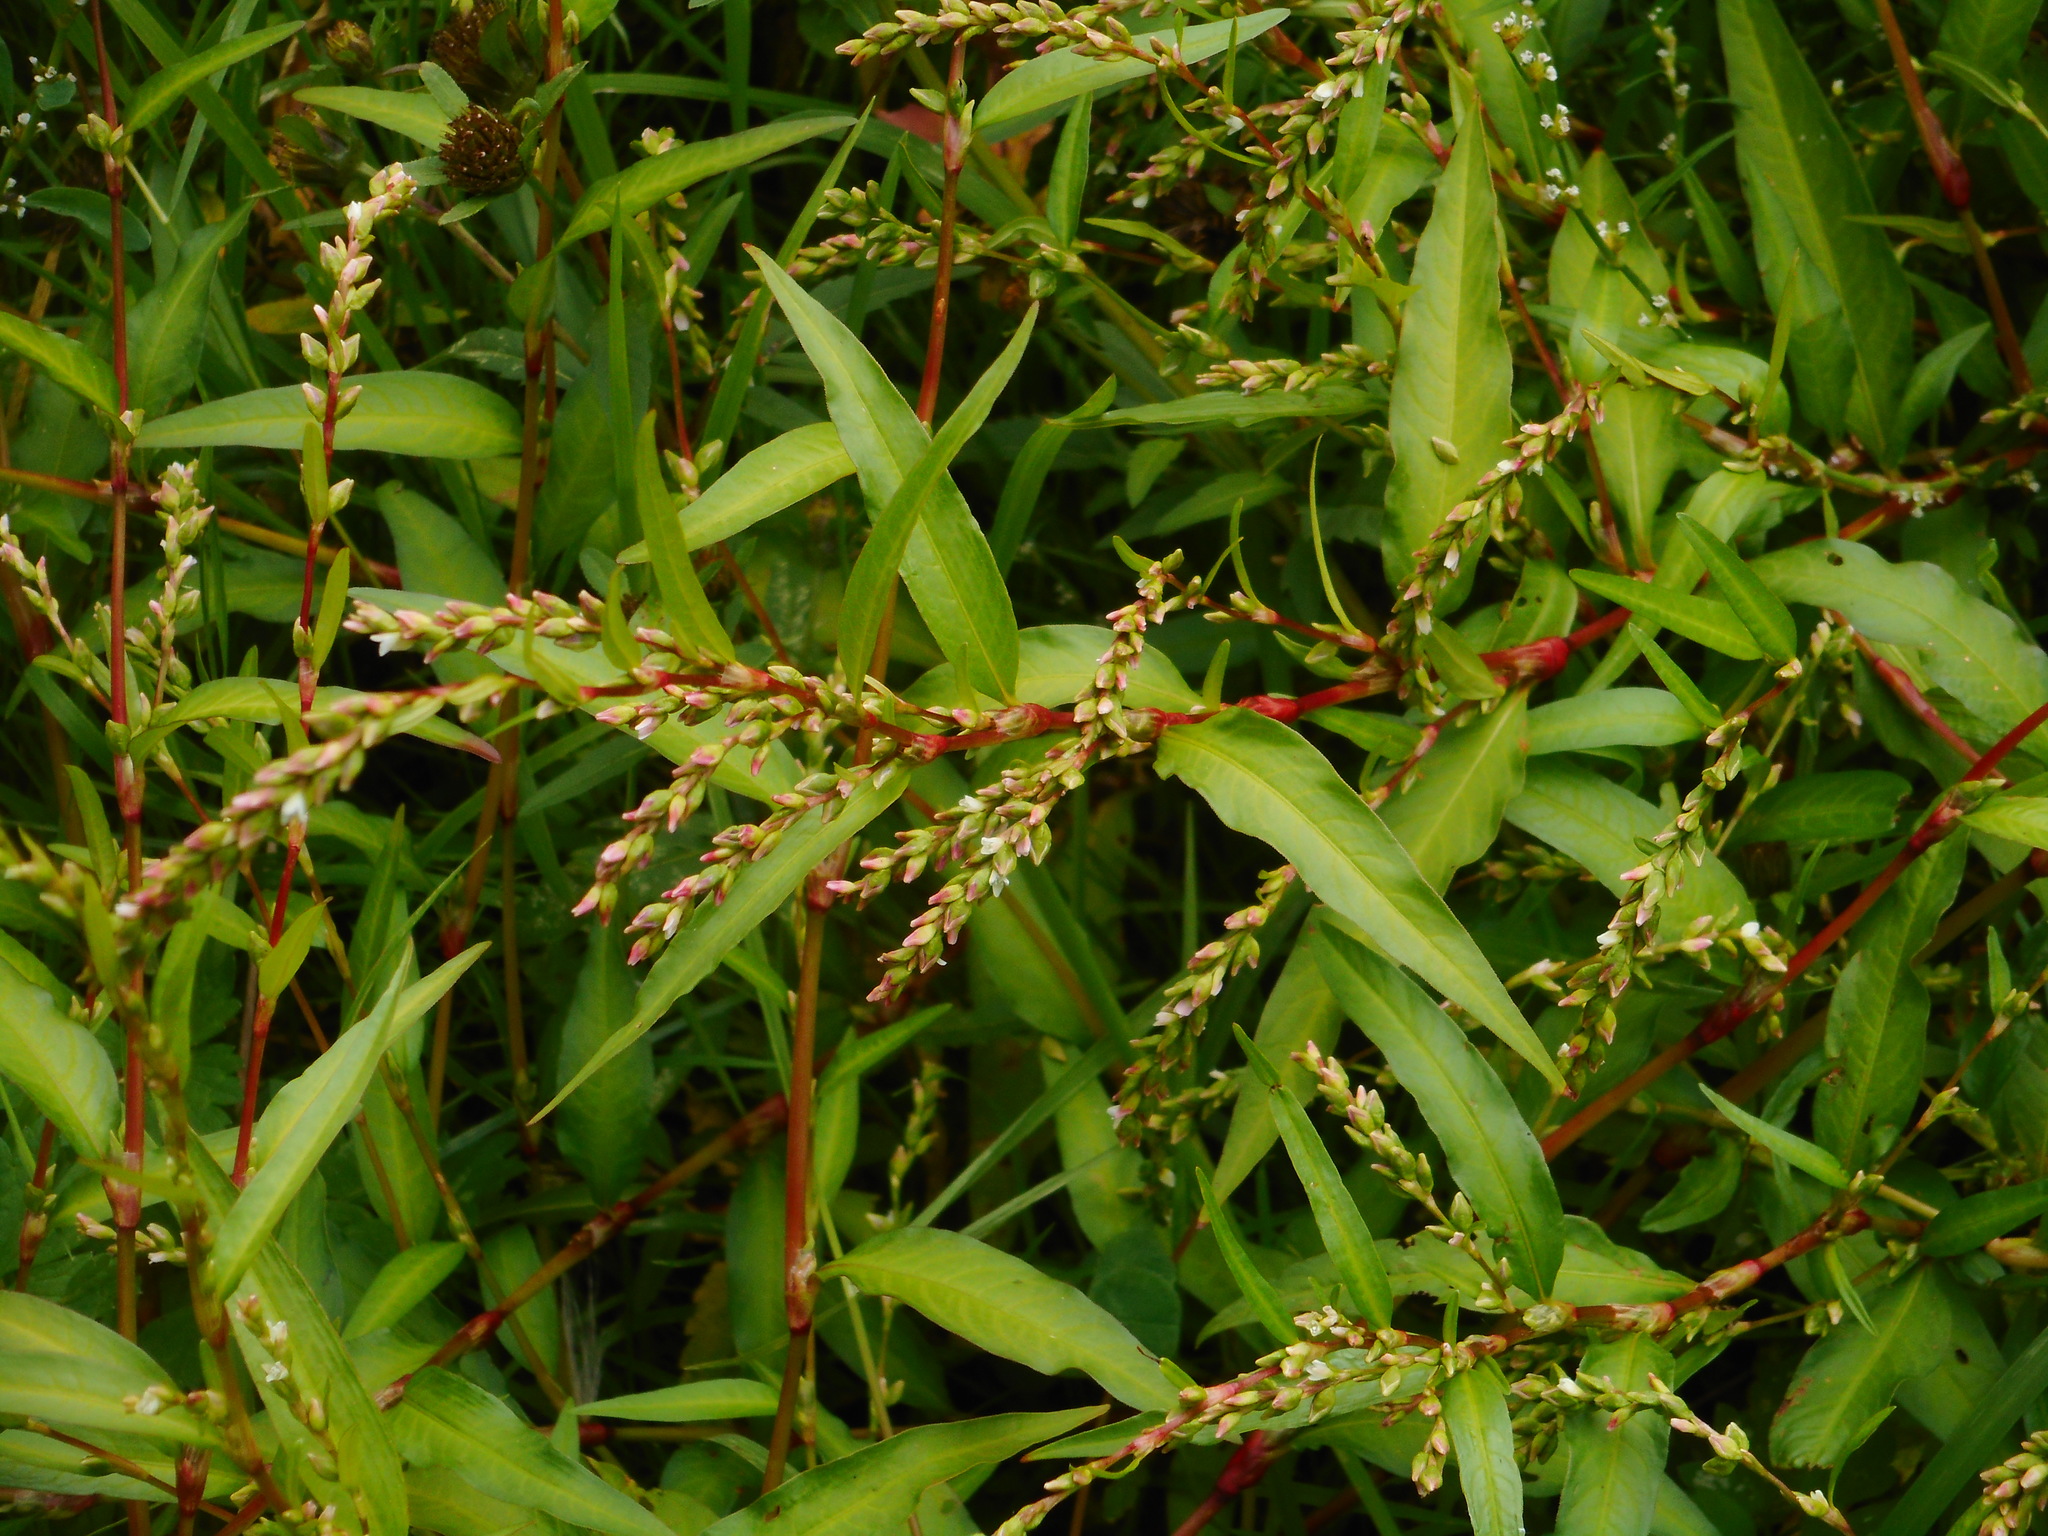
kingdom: Plantae
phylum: Tracheophyta
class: Magnoliopsida
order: Caryophyllales
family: Polygonaceae
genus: Persicaria
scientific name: Persicaria hydropiper
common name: Water-pepper
